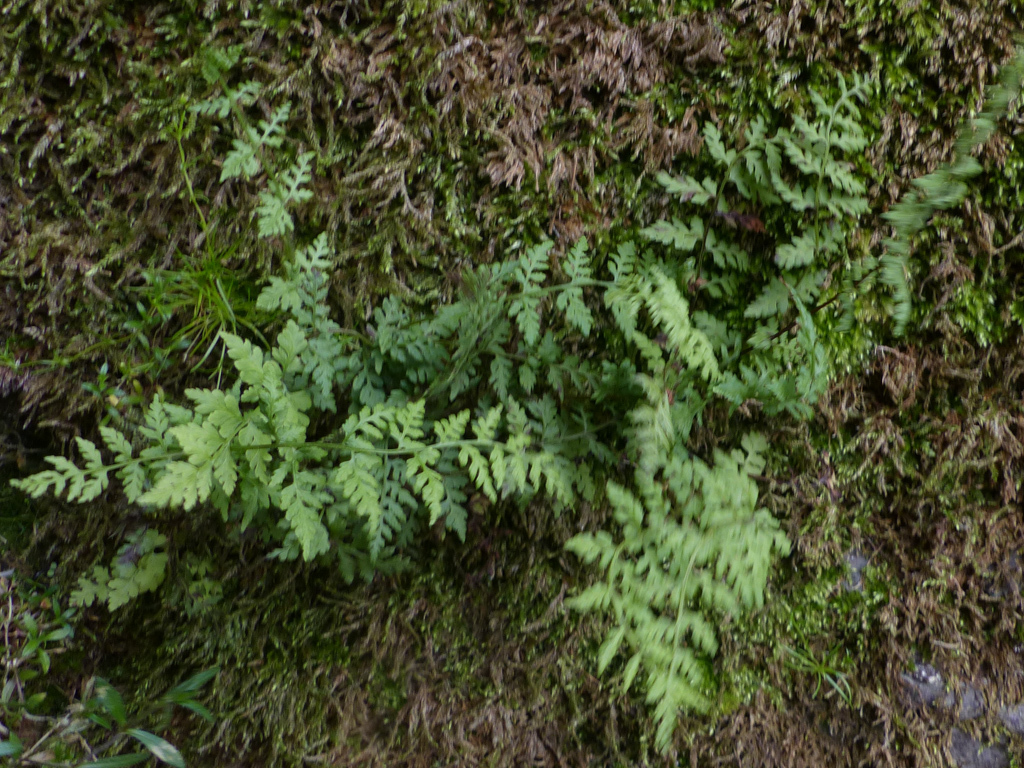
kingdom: Plantae
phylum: Tracheophyta
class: Polypodiopsida
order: Polypodiales
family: Cystopteridaceae
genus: Cystopteris
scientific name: Cystopteris fragilis
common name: Brittle bladder fern
